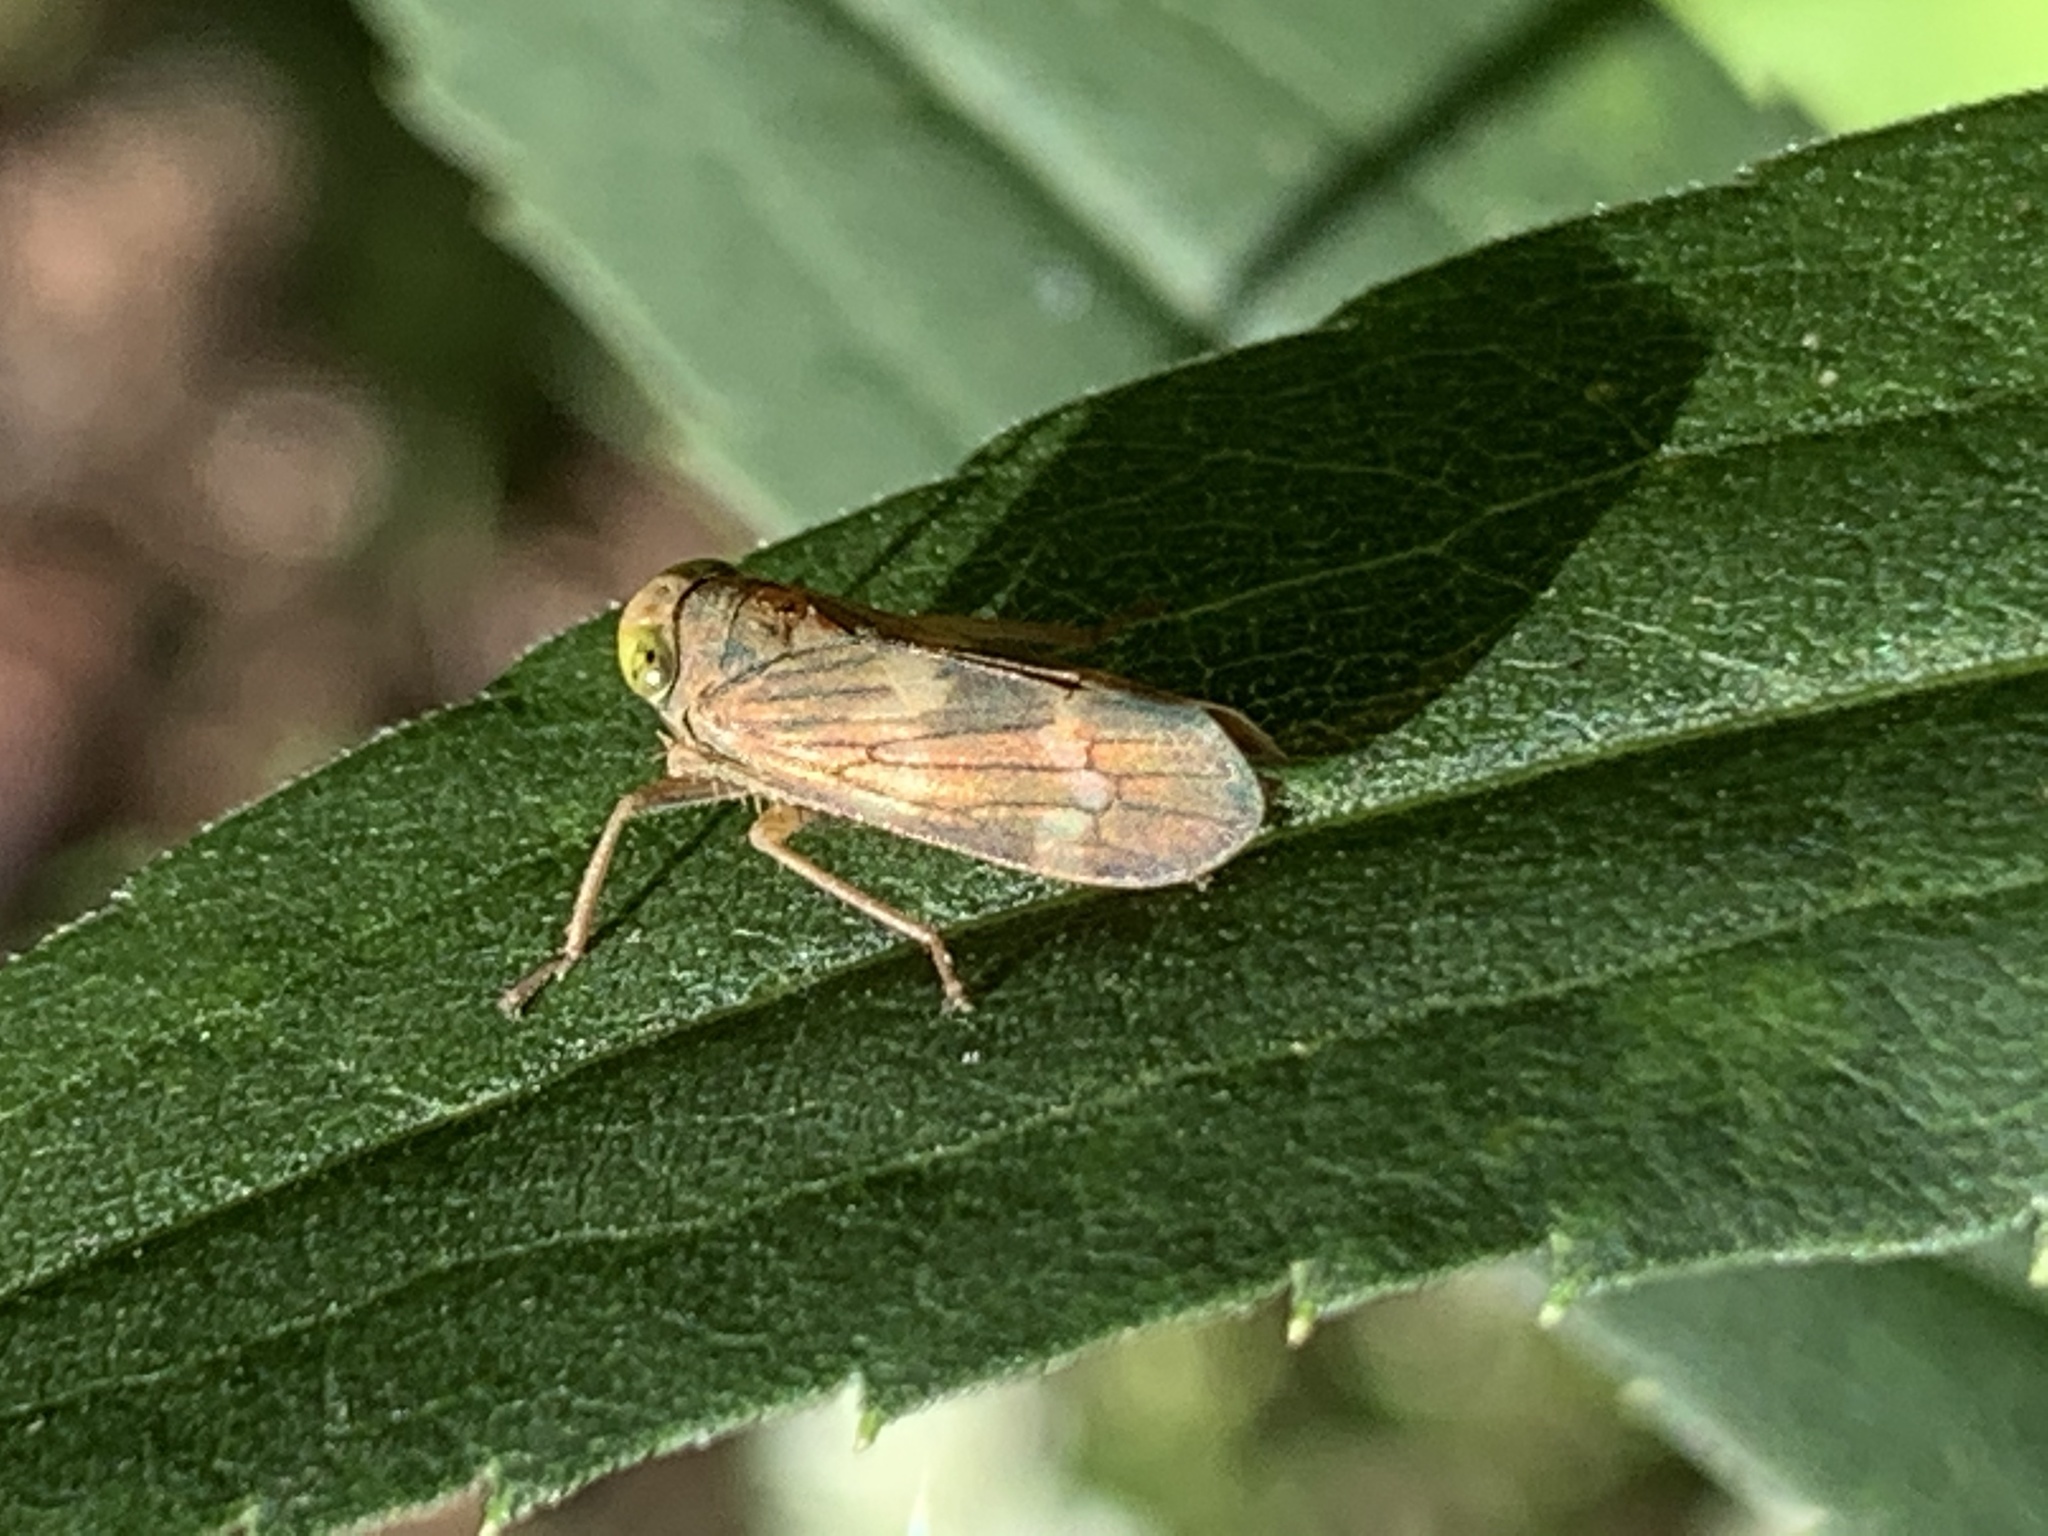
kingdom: Animalia
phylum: Arthropoda
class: Insecta
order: Hemiptera
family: Cicadellidae
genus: Jikradia
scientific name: Jikradia olitoria
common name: Coppery leafhopper
